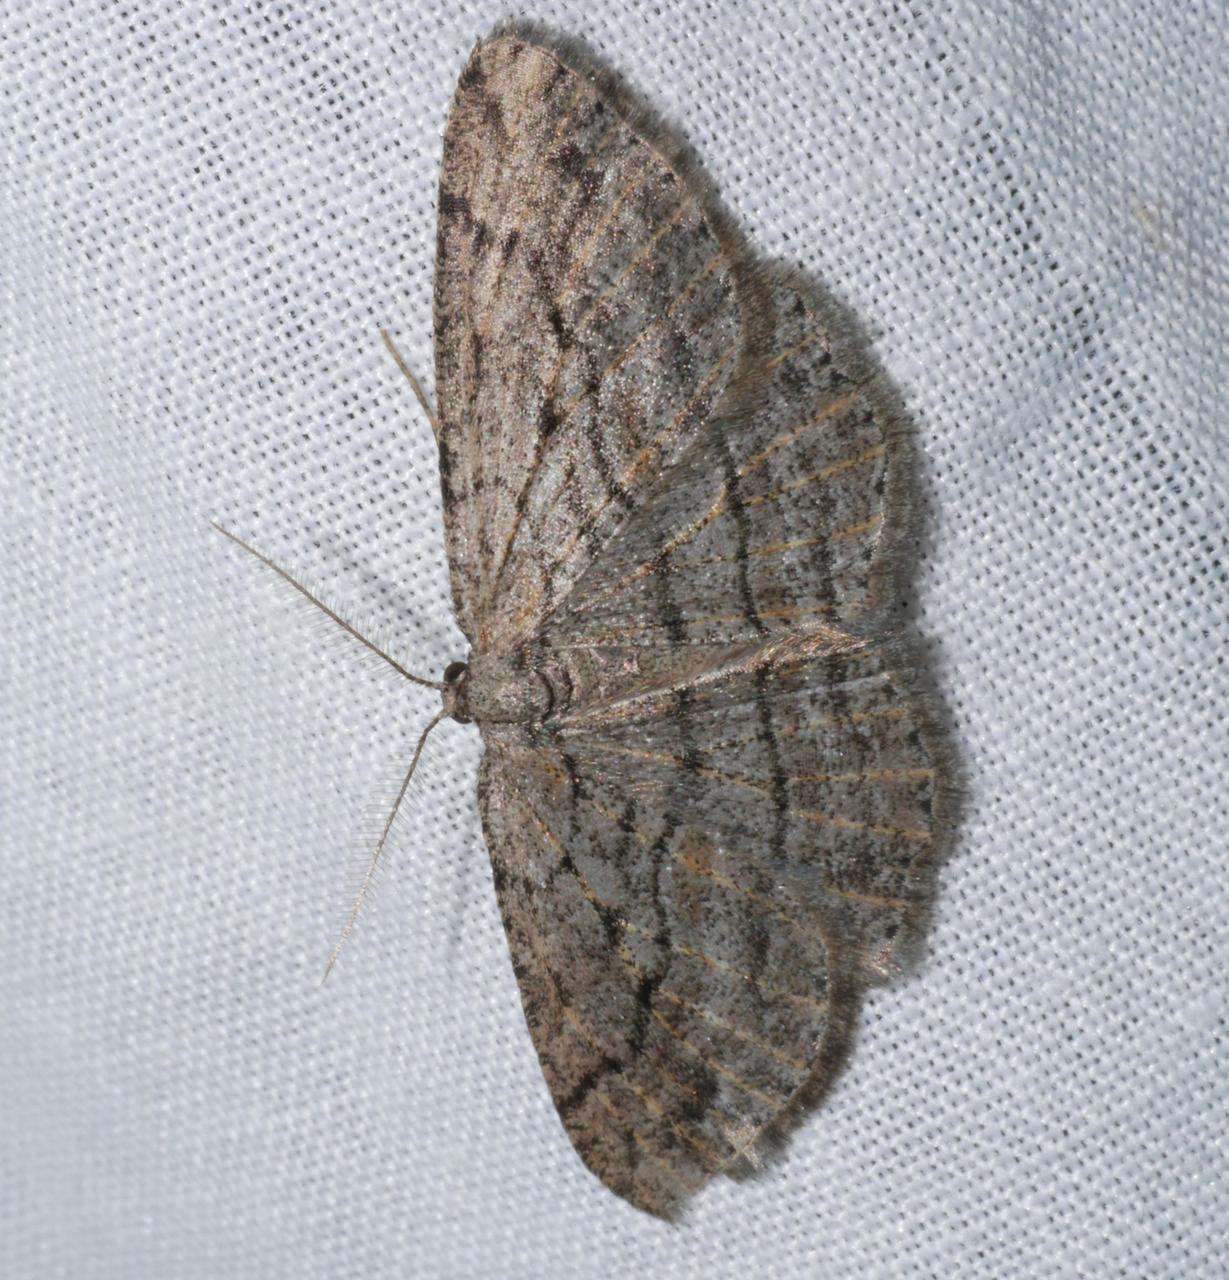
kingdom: Animalia
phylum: Arthropoda
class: Insecta
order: Lepidoptera
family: Geometridae
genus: Zermizinga
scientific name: Zermizinga sinuata
